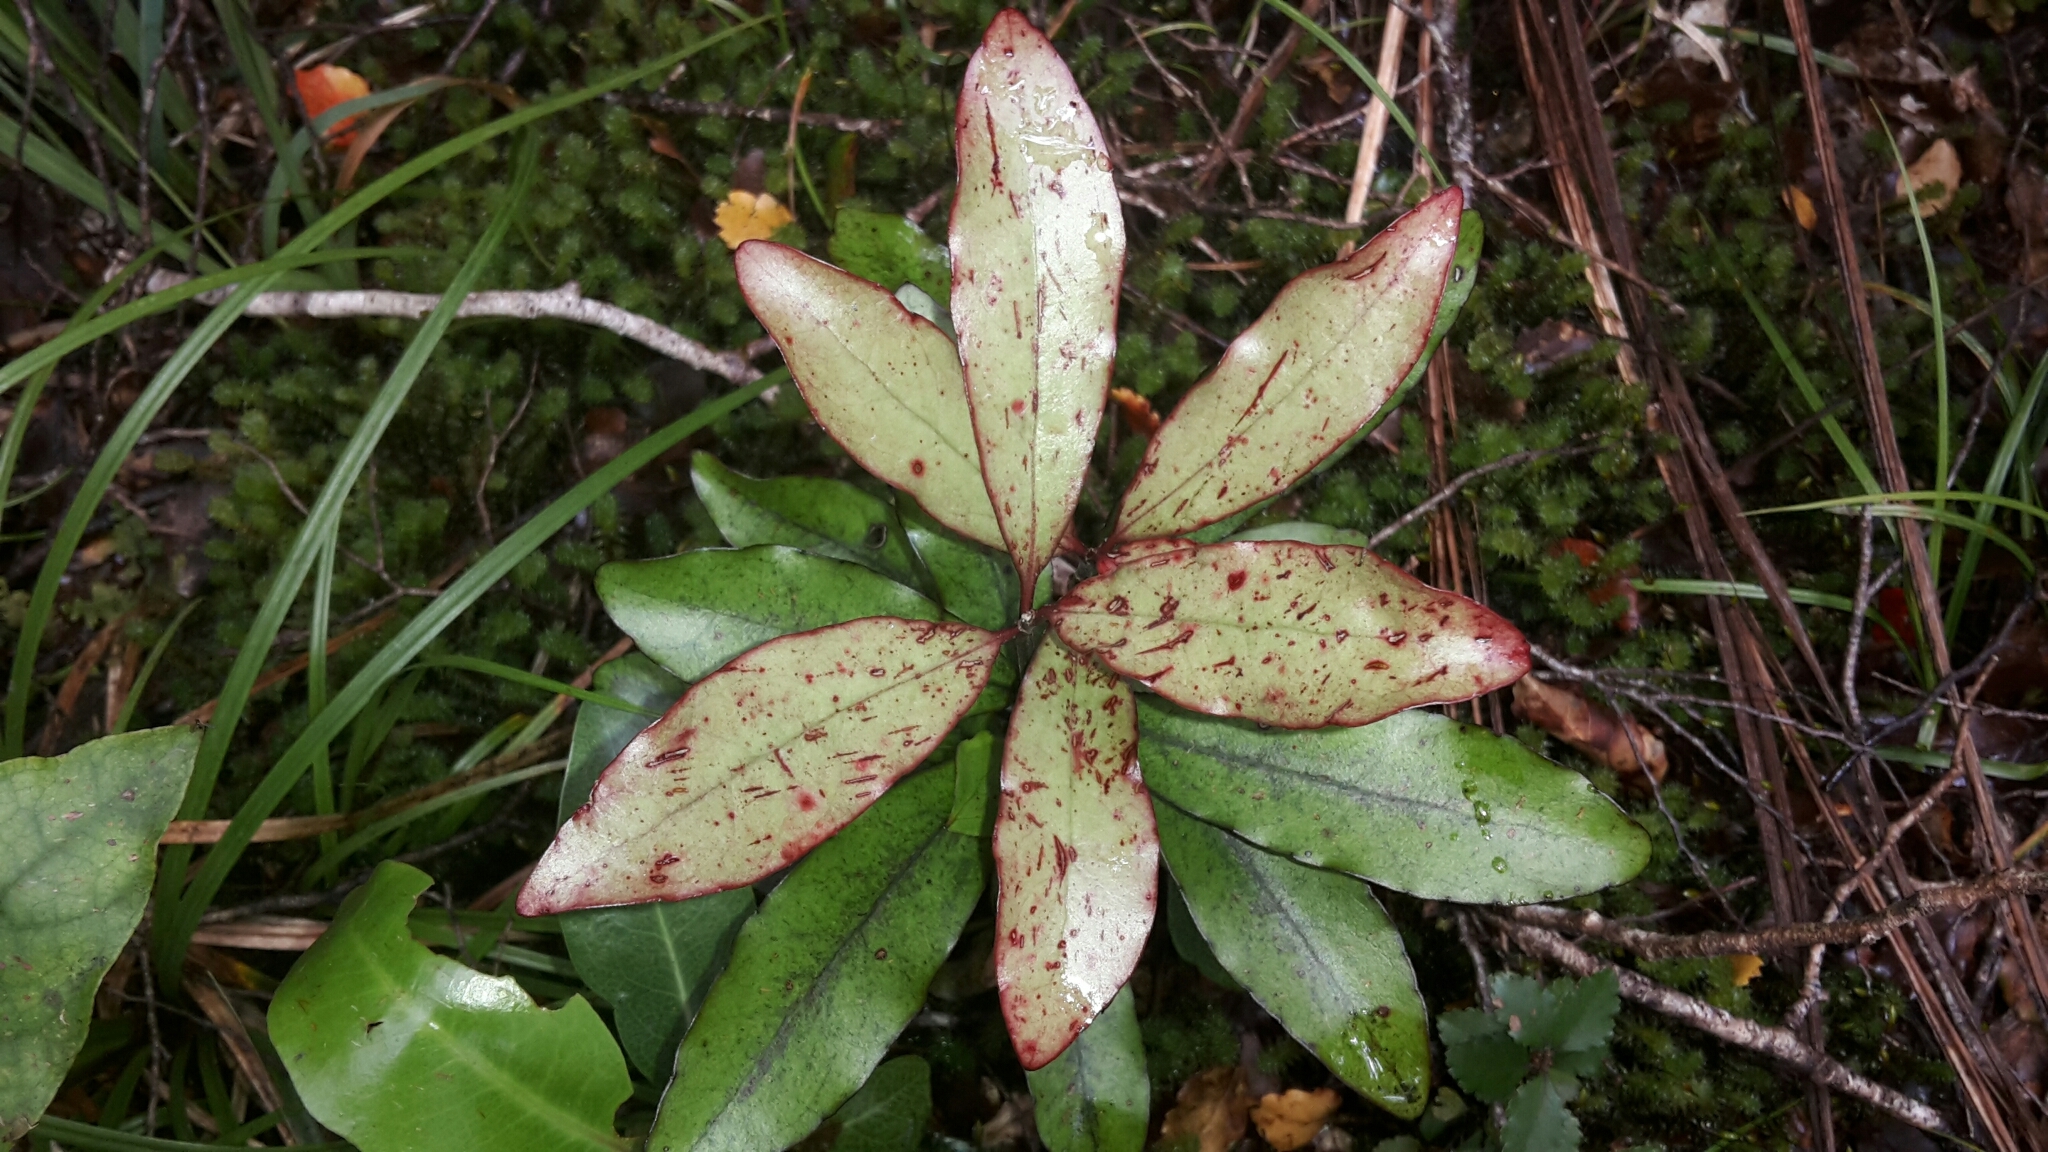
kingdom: Plantae
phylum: Tracheophyta
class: Magnoliopsida
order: Asterales
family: Alseuosmiaceae
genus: Alseuosmia
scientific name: Alseuosmia pusilla
